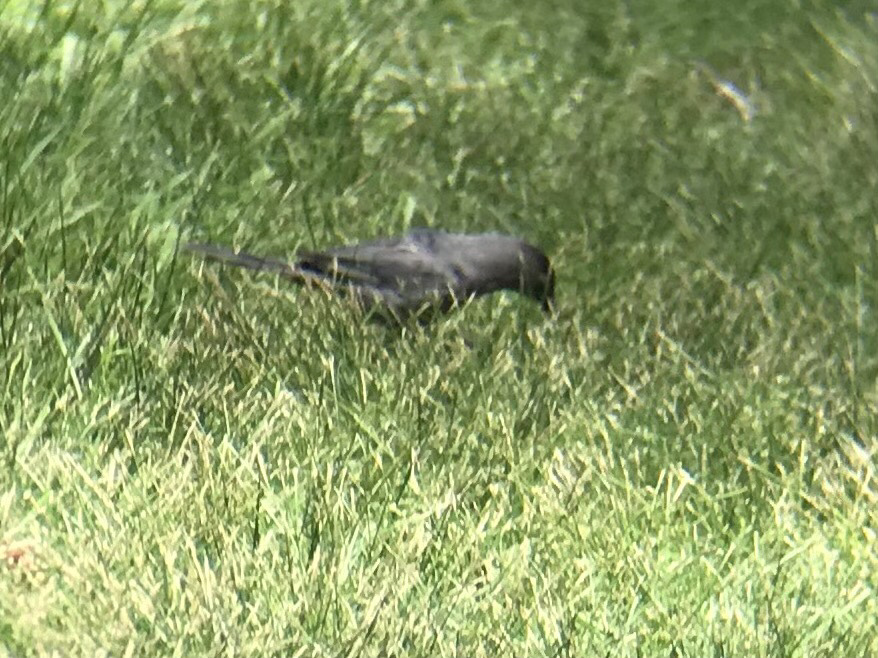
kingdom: Animalia
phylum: Chordata
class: Aves
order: Passeriformes
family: Mimidae
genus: Dumetella
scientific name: Dumetella carolinensis
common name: Gray catbird
